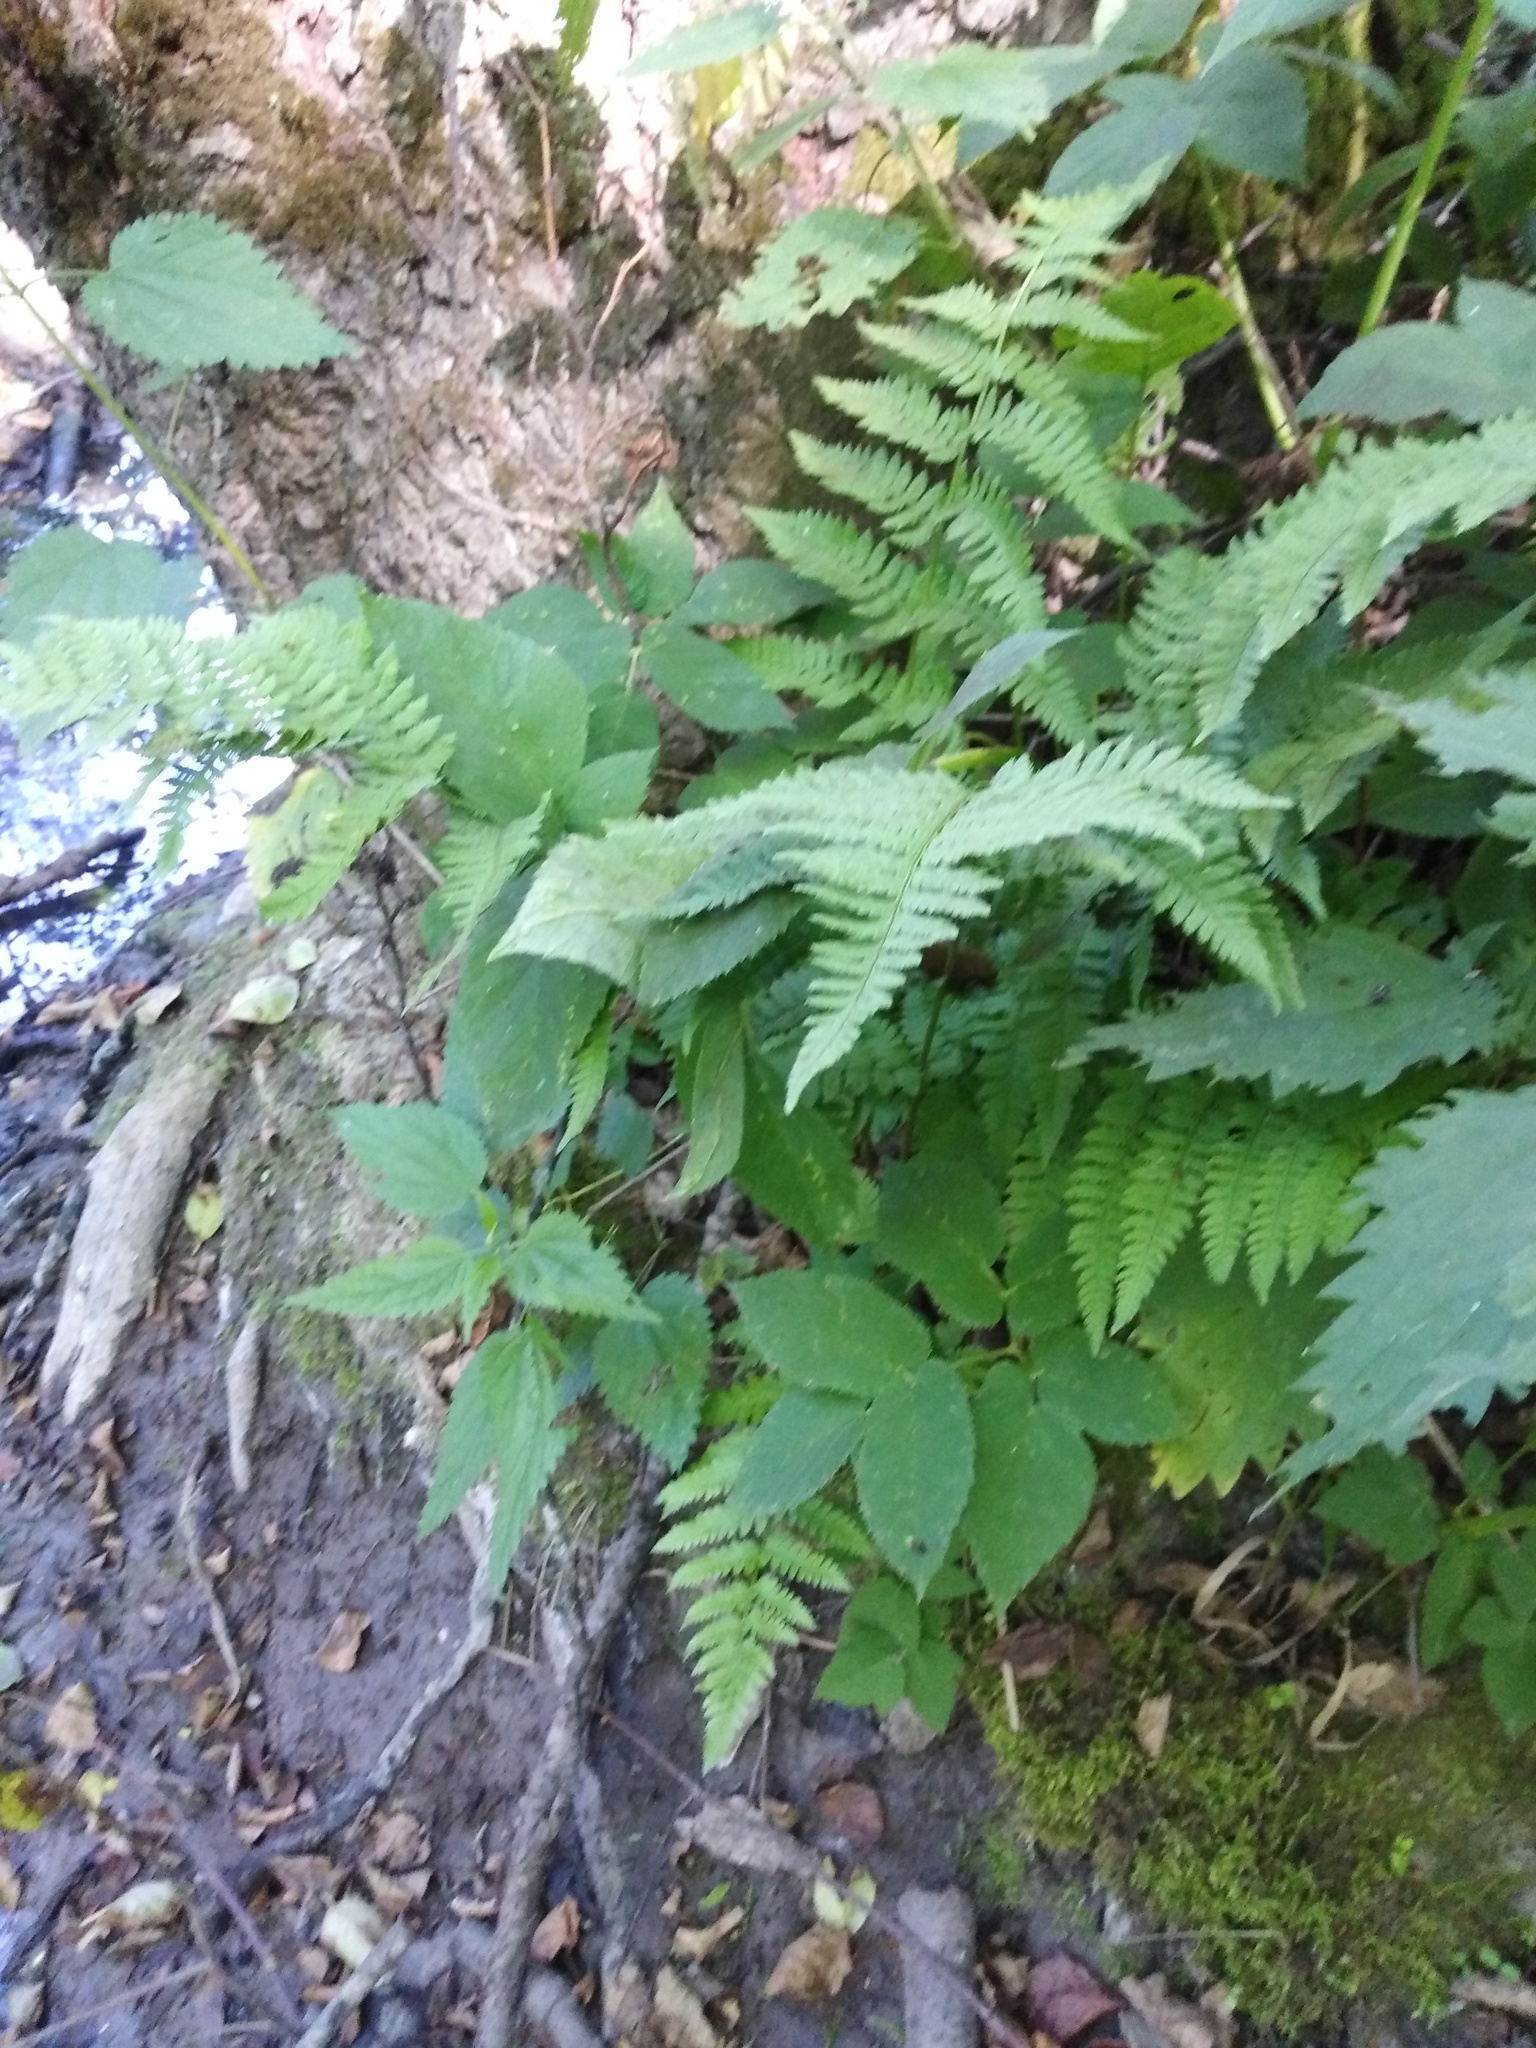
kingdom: Plantae
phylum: Tracheophyta
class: Polypodiopsida
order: Polypodiales
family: Dryopteridaceae
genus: Dryopteris
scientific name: Dryopteris carthusiana
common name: Narrow buckler-fern
